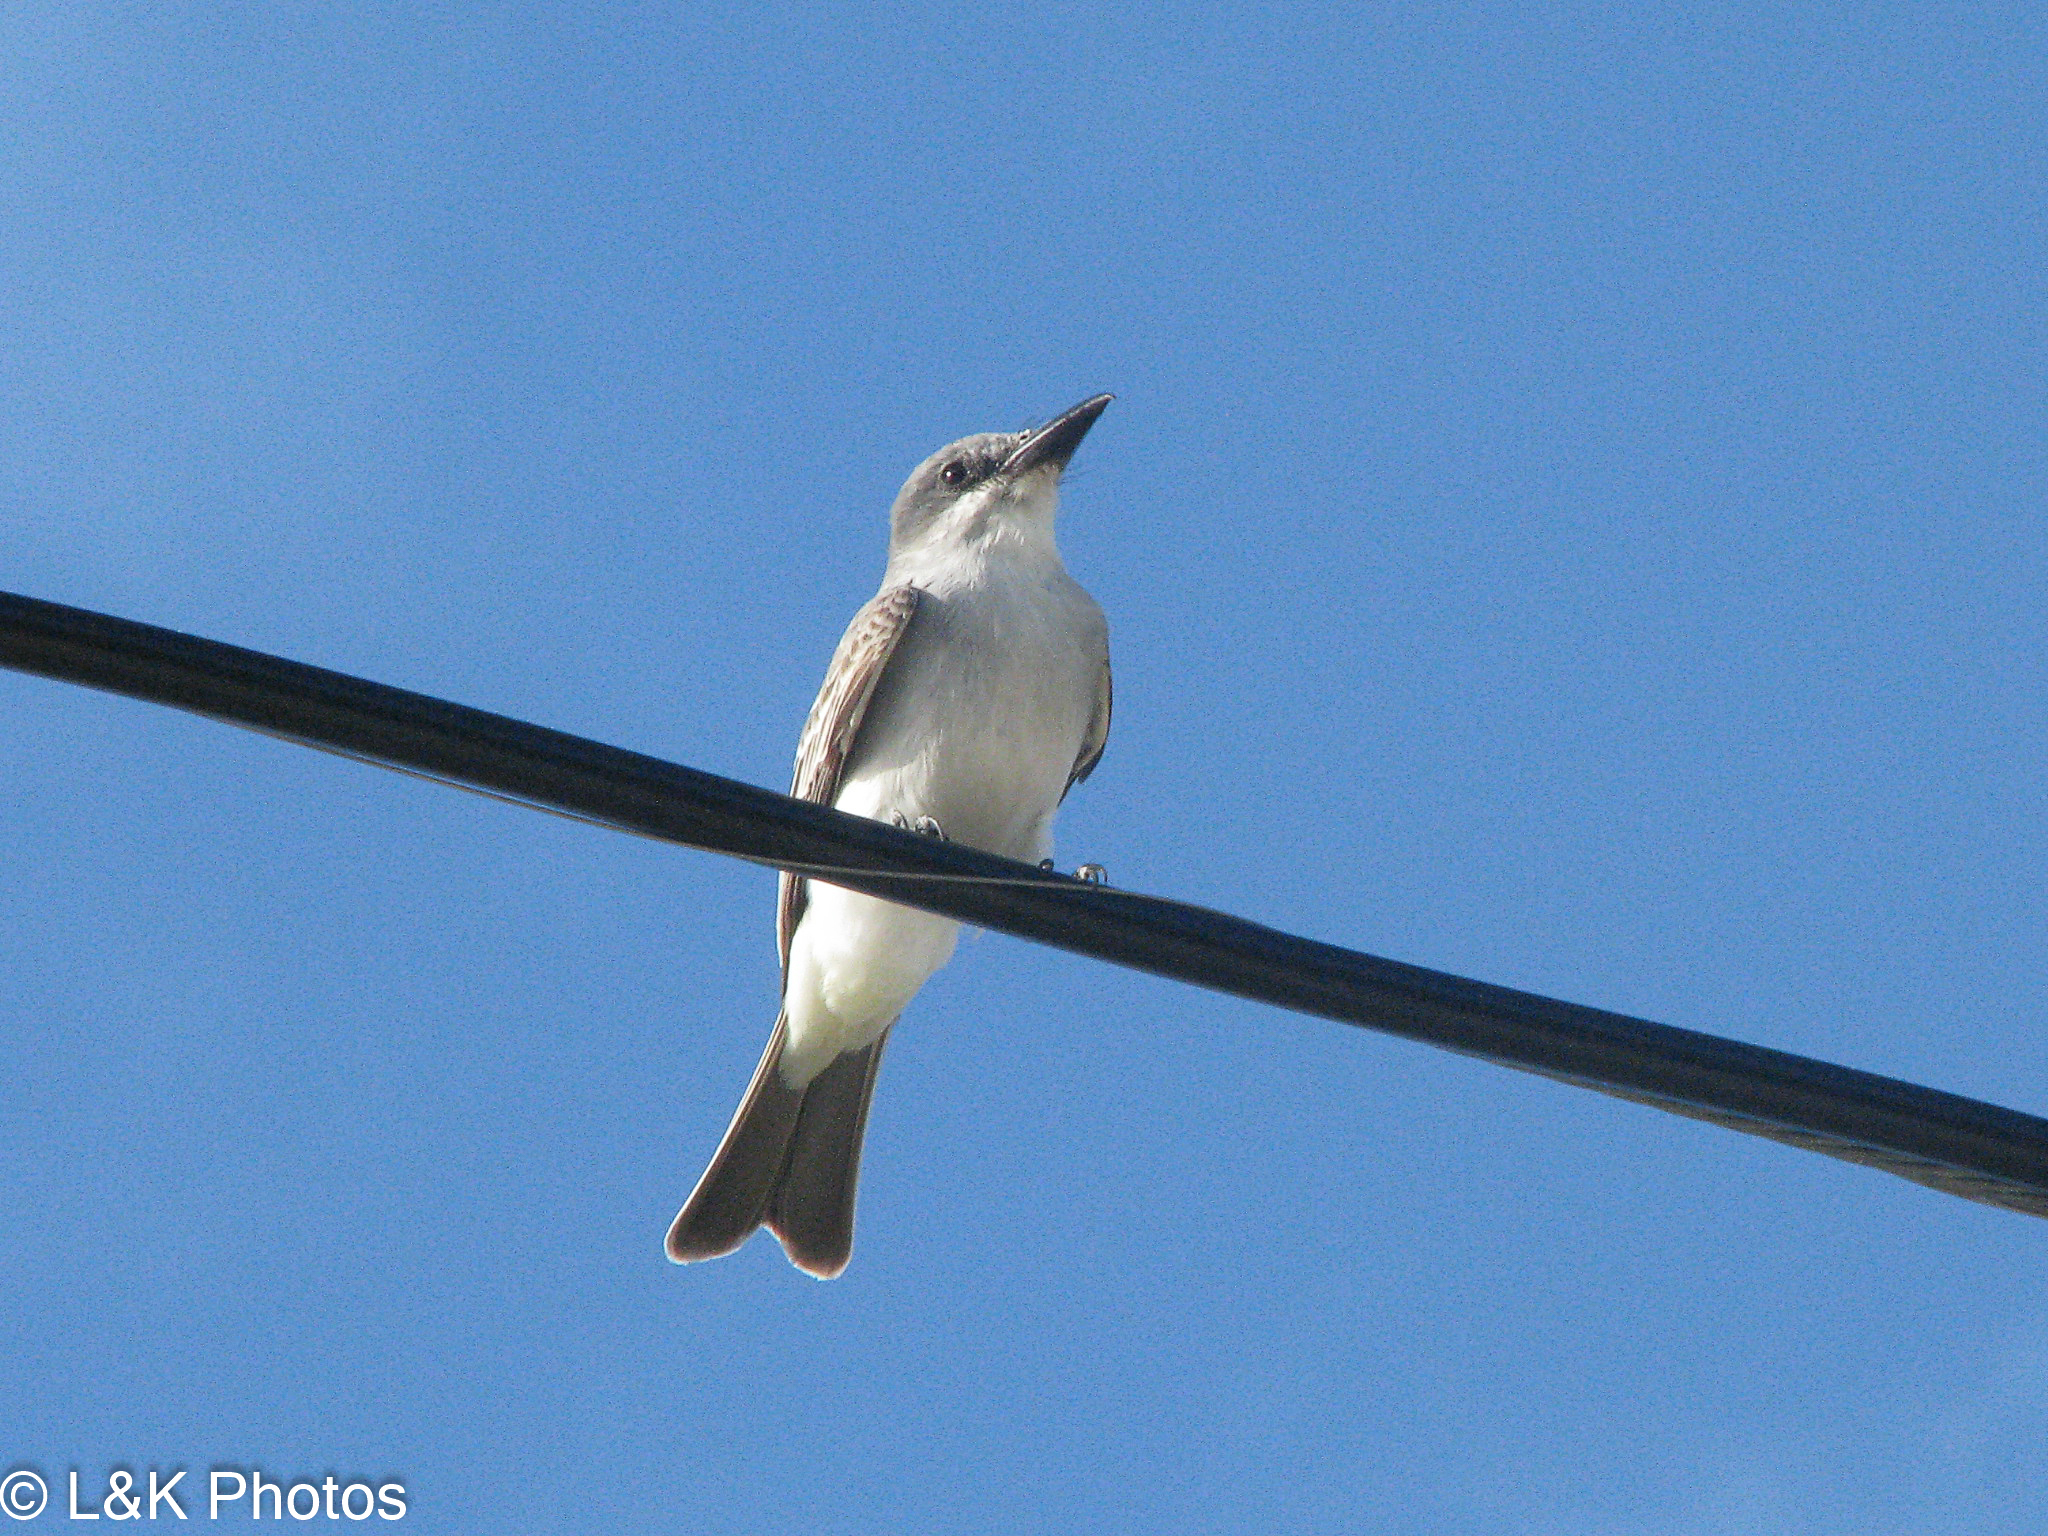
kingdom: Animalia
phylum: Chordata
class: Aves
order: Passeriformes
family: Tyrannidae
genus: Tyrannus
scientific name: Tyrannus dominicensis
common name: Gray kingbird
